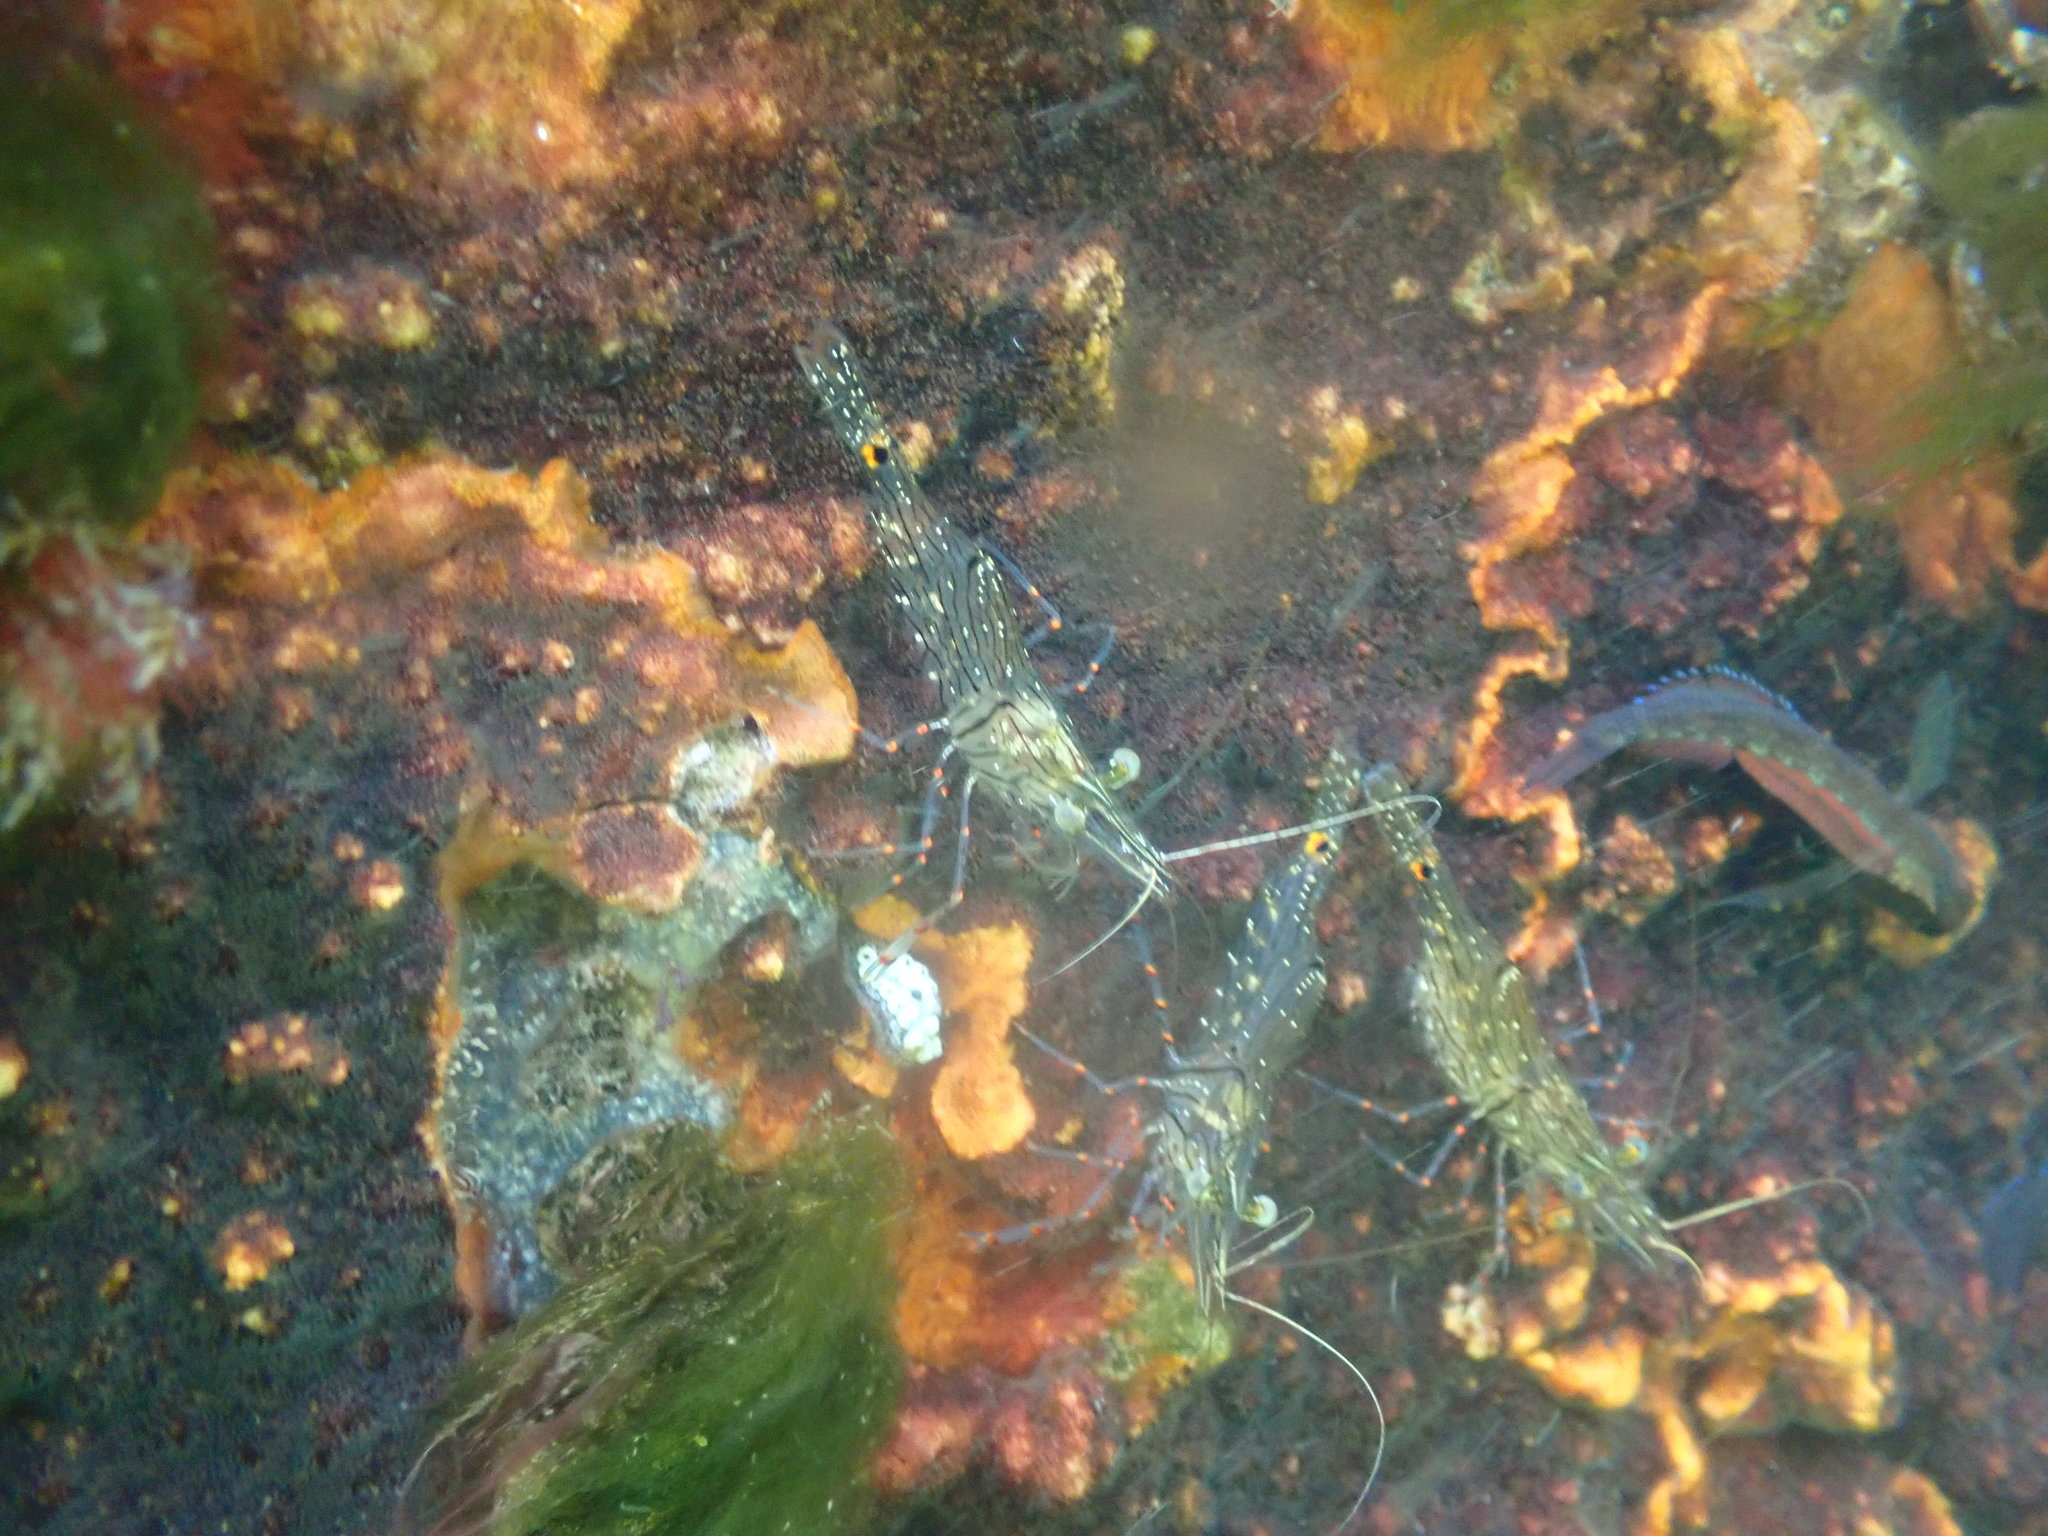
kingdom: Animalia
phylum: Arthropoda
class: Malacostraca
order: Decapoda
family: Palaemonidae
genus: Palaemon
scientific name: Palaemon affinis
